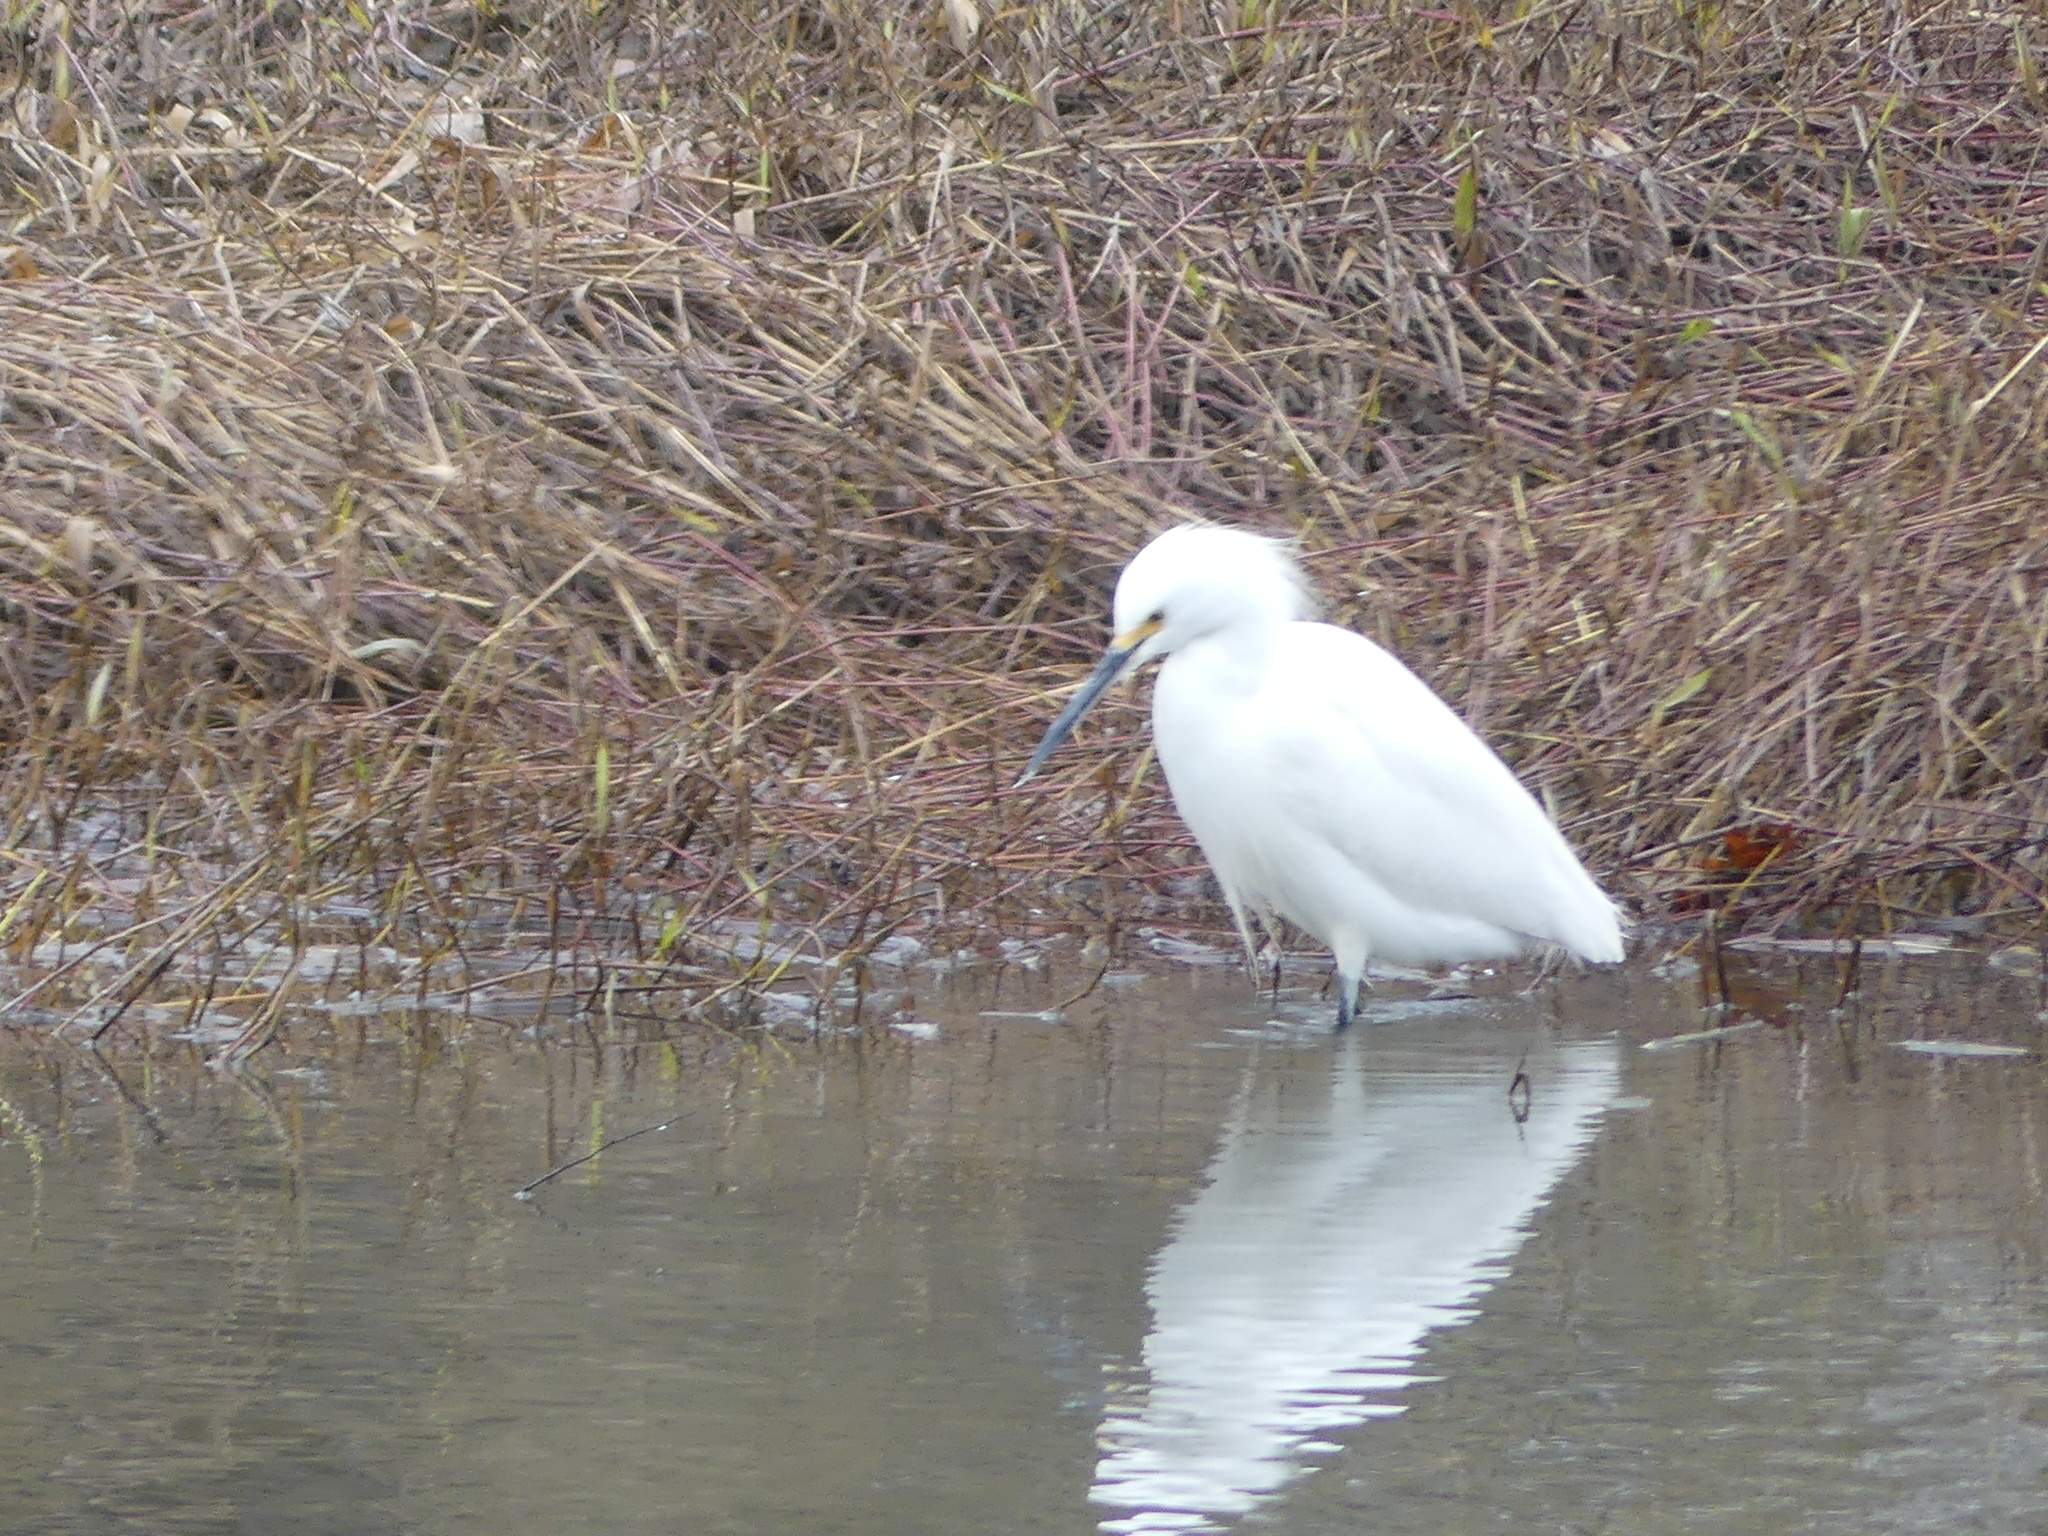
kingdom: Animalia
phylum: Chordata
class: Aves
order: Pelecaniformes
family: Ardeidae
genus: Egretta
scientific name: Egretta thula
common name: Snowy egret
